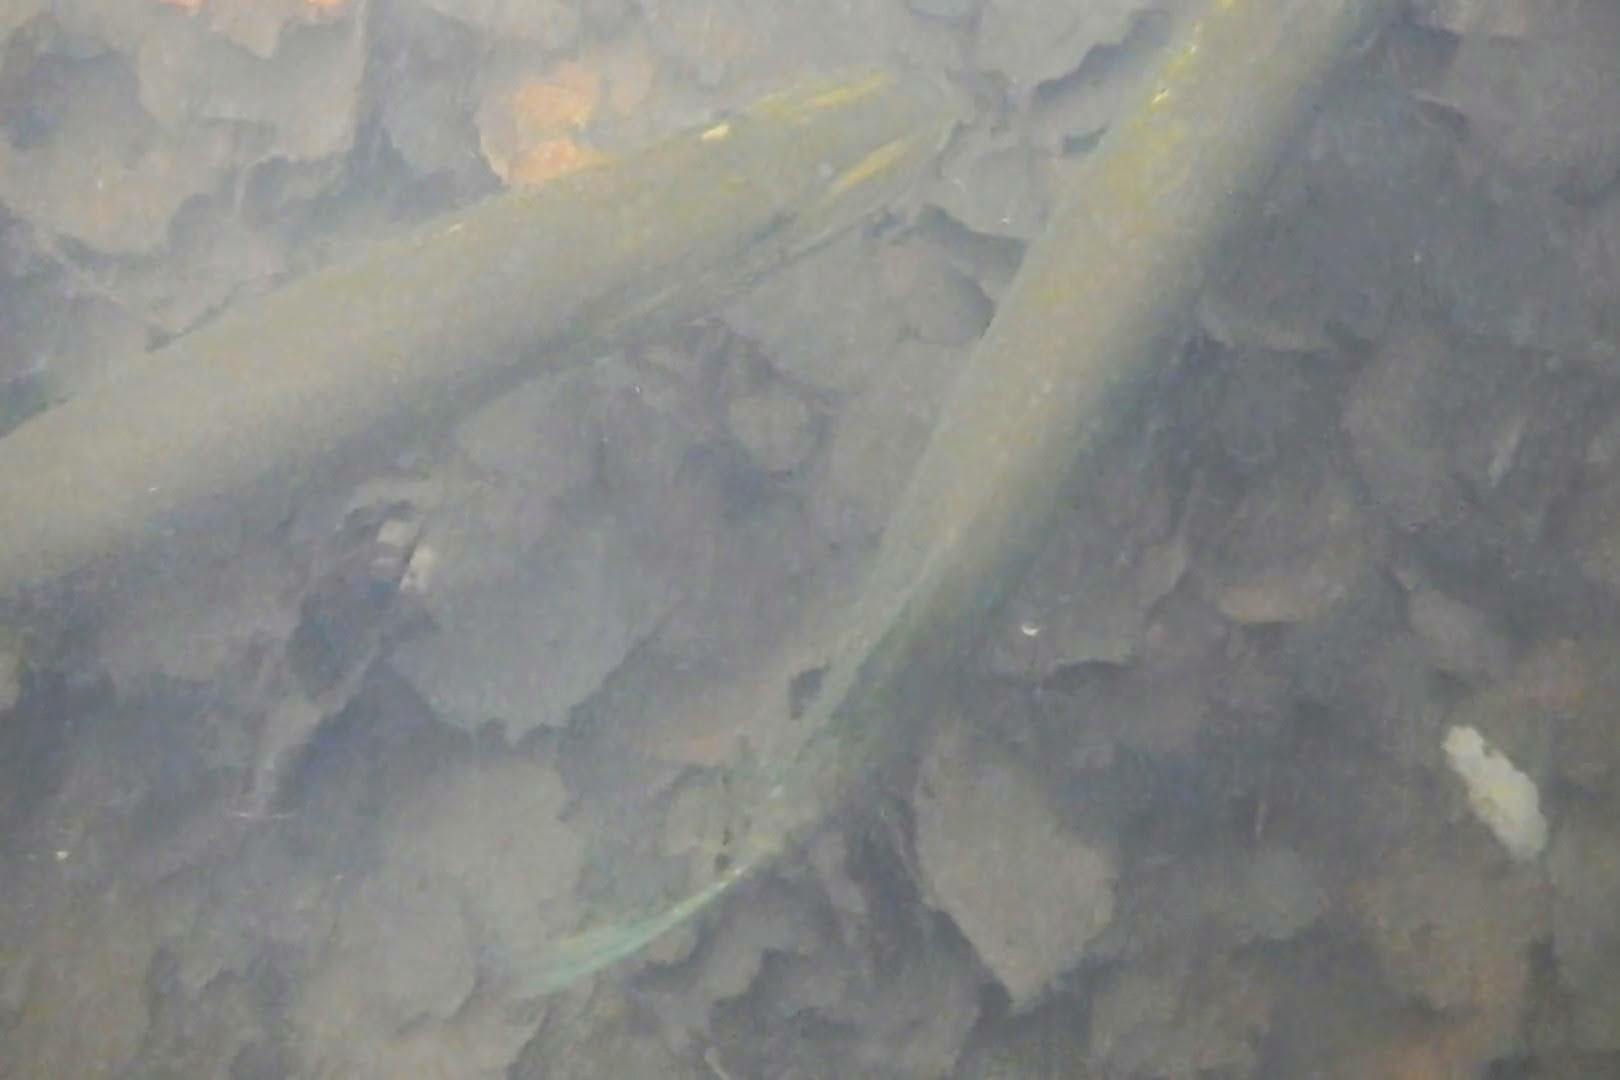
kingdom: Animalia
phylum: Chordata
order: Esociformes
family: Esocidae
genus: Esox
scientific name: Esox lucius
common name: Northern pike
